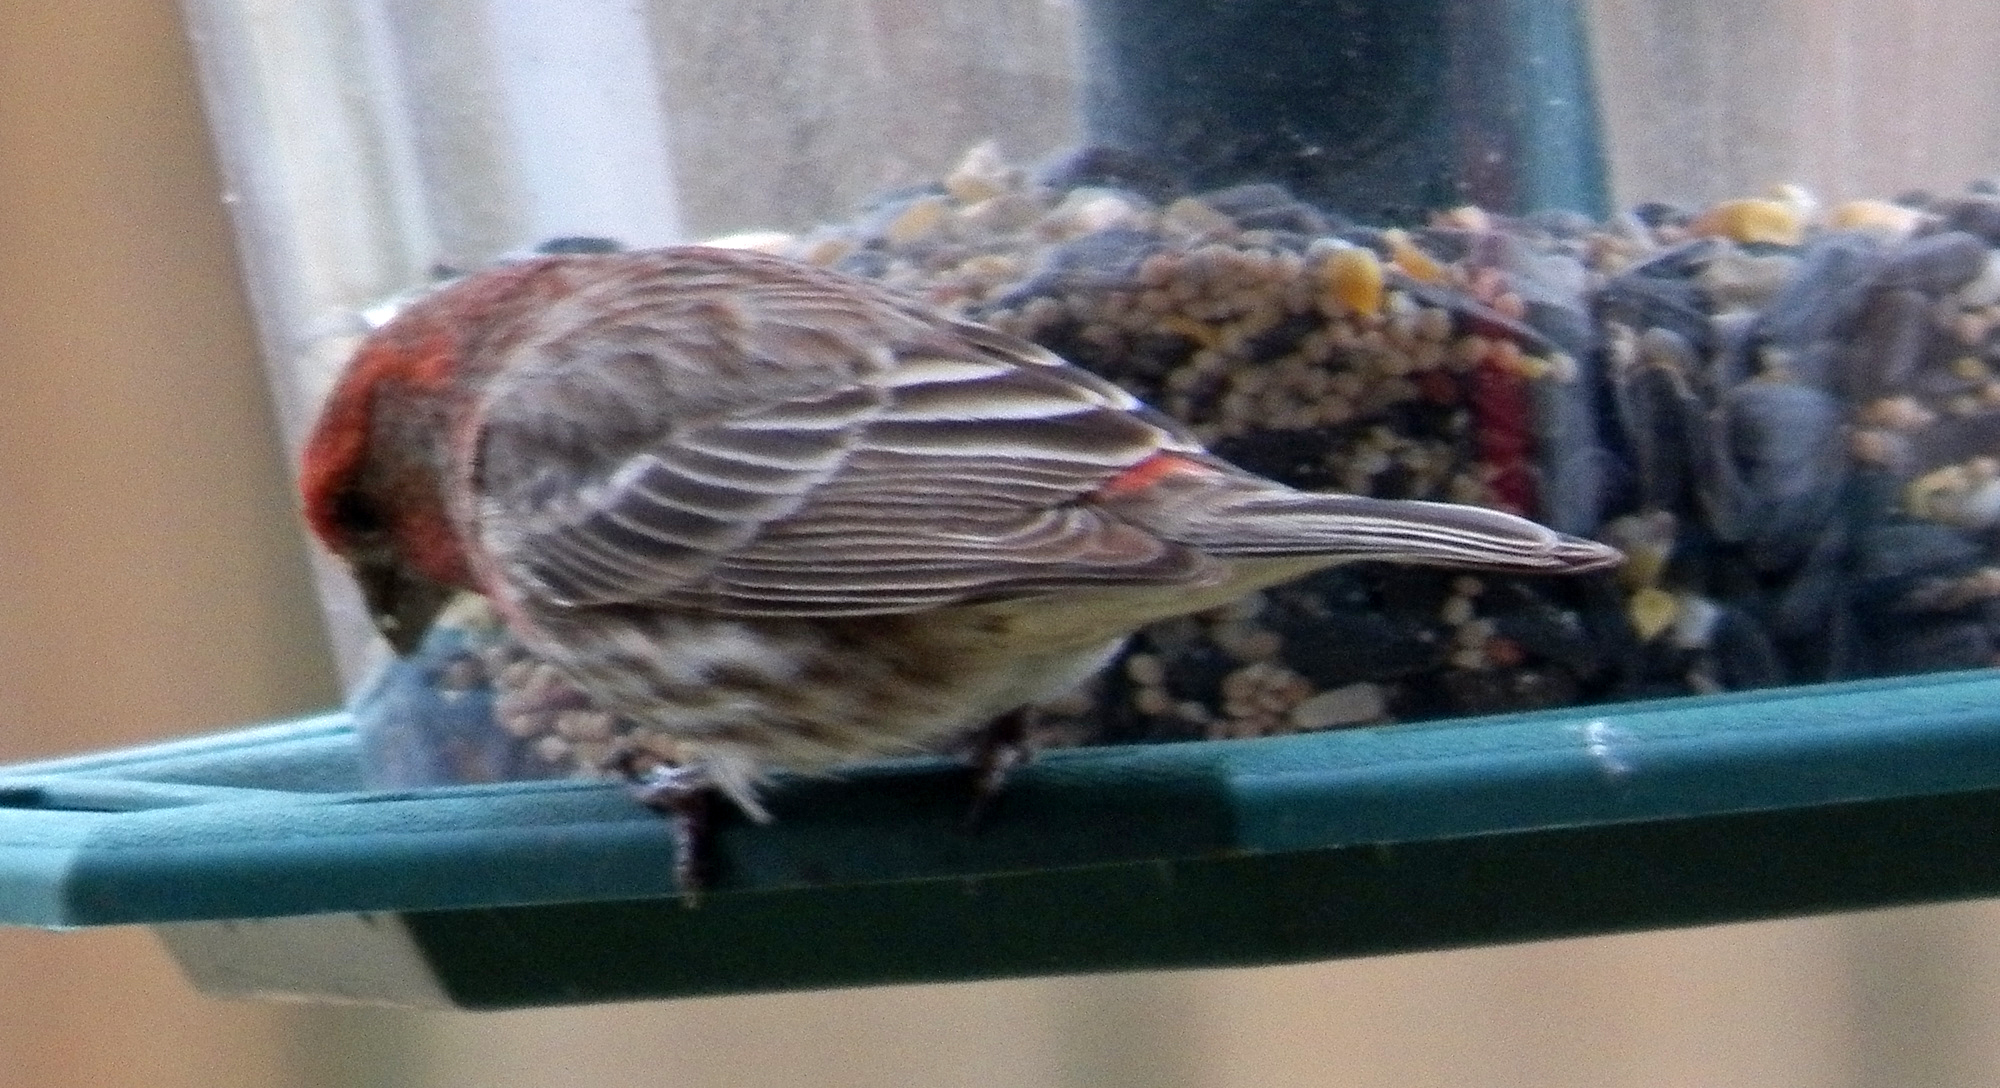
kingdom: Animalia
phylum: Chordata
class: Aves
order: Passeriformes
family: Fringillidae
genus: Haemorhous
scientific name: Haemorhous mexicanus
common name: House finch
